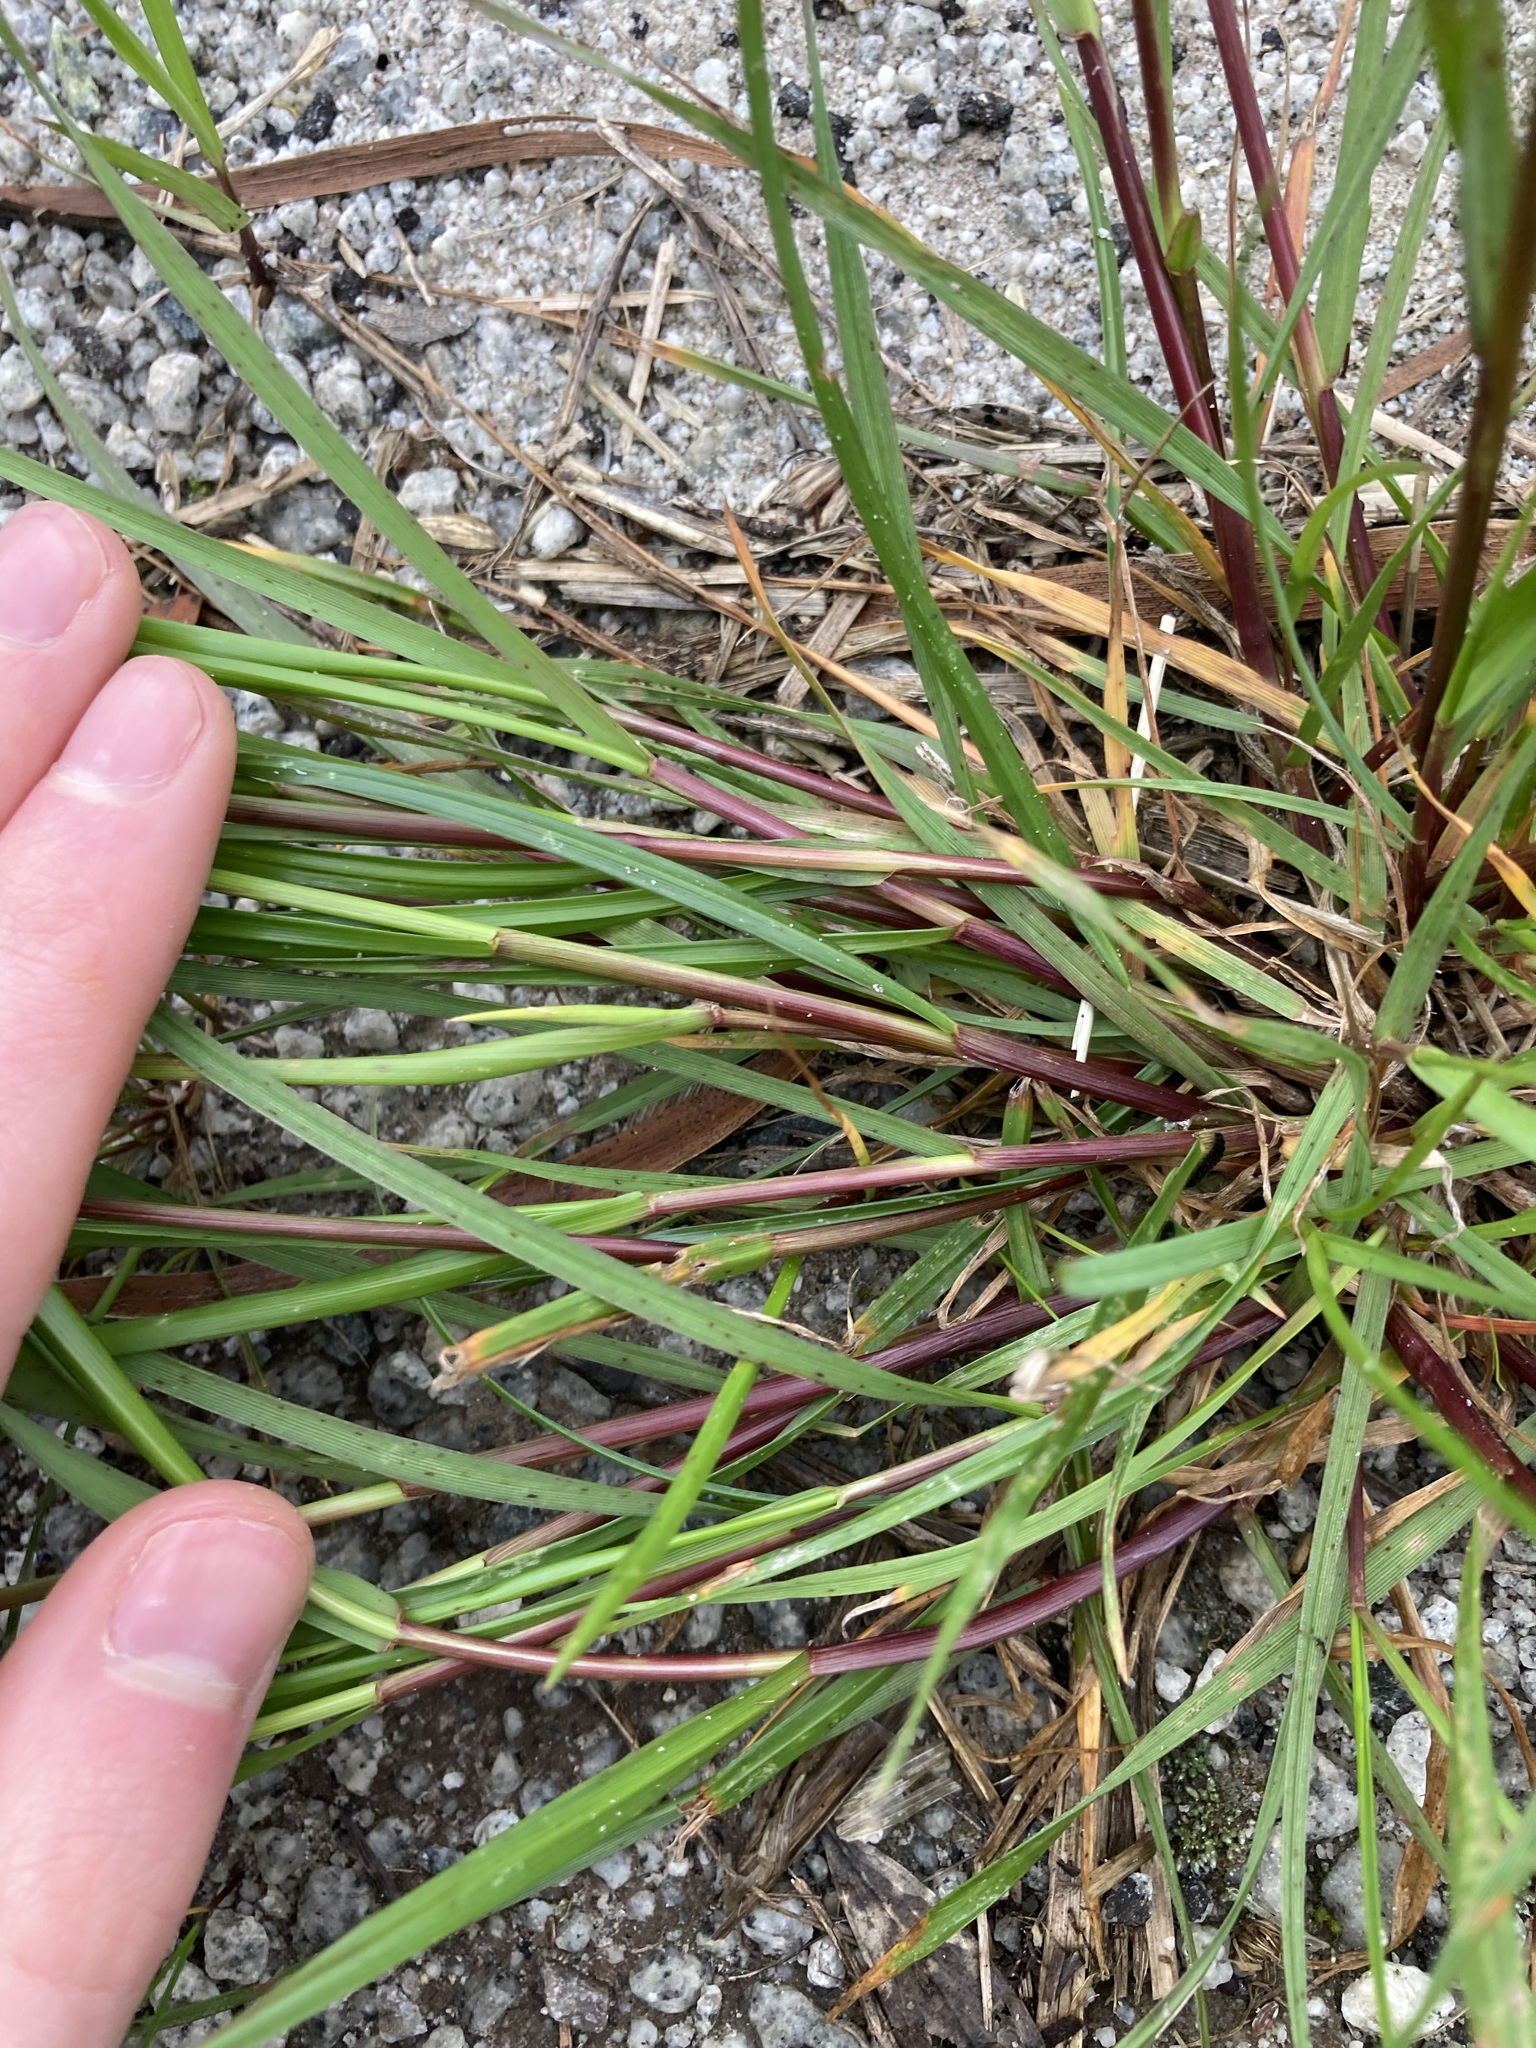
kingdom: Plantae
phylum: Tracheophyta
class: Liliopsida
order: Poales
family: Poaceae
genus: Lolium
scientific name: Lolium perenne
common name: Perennial ryegrass
